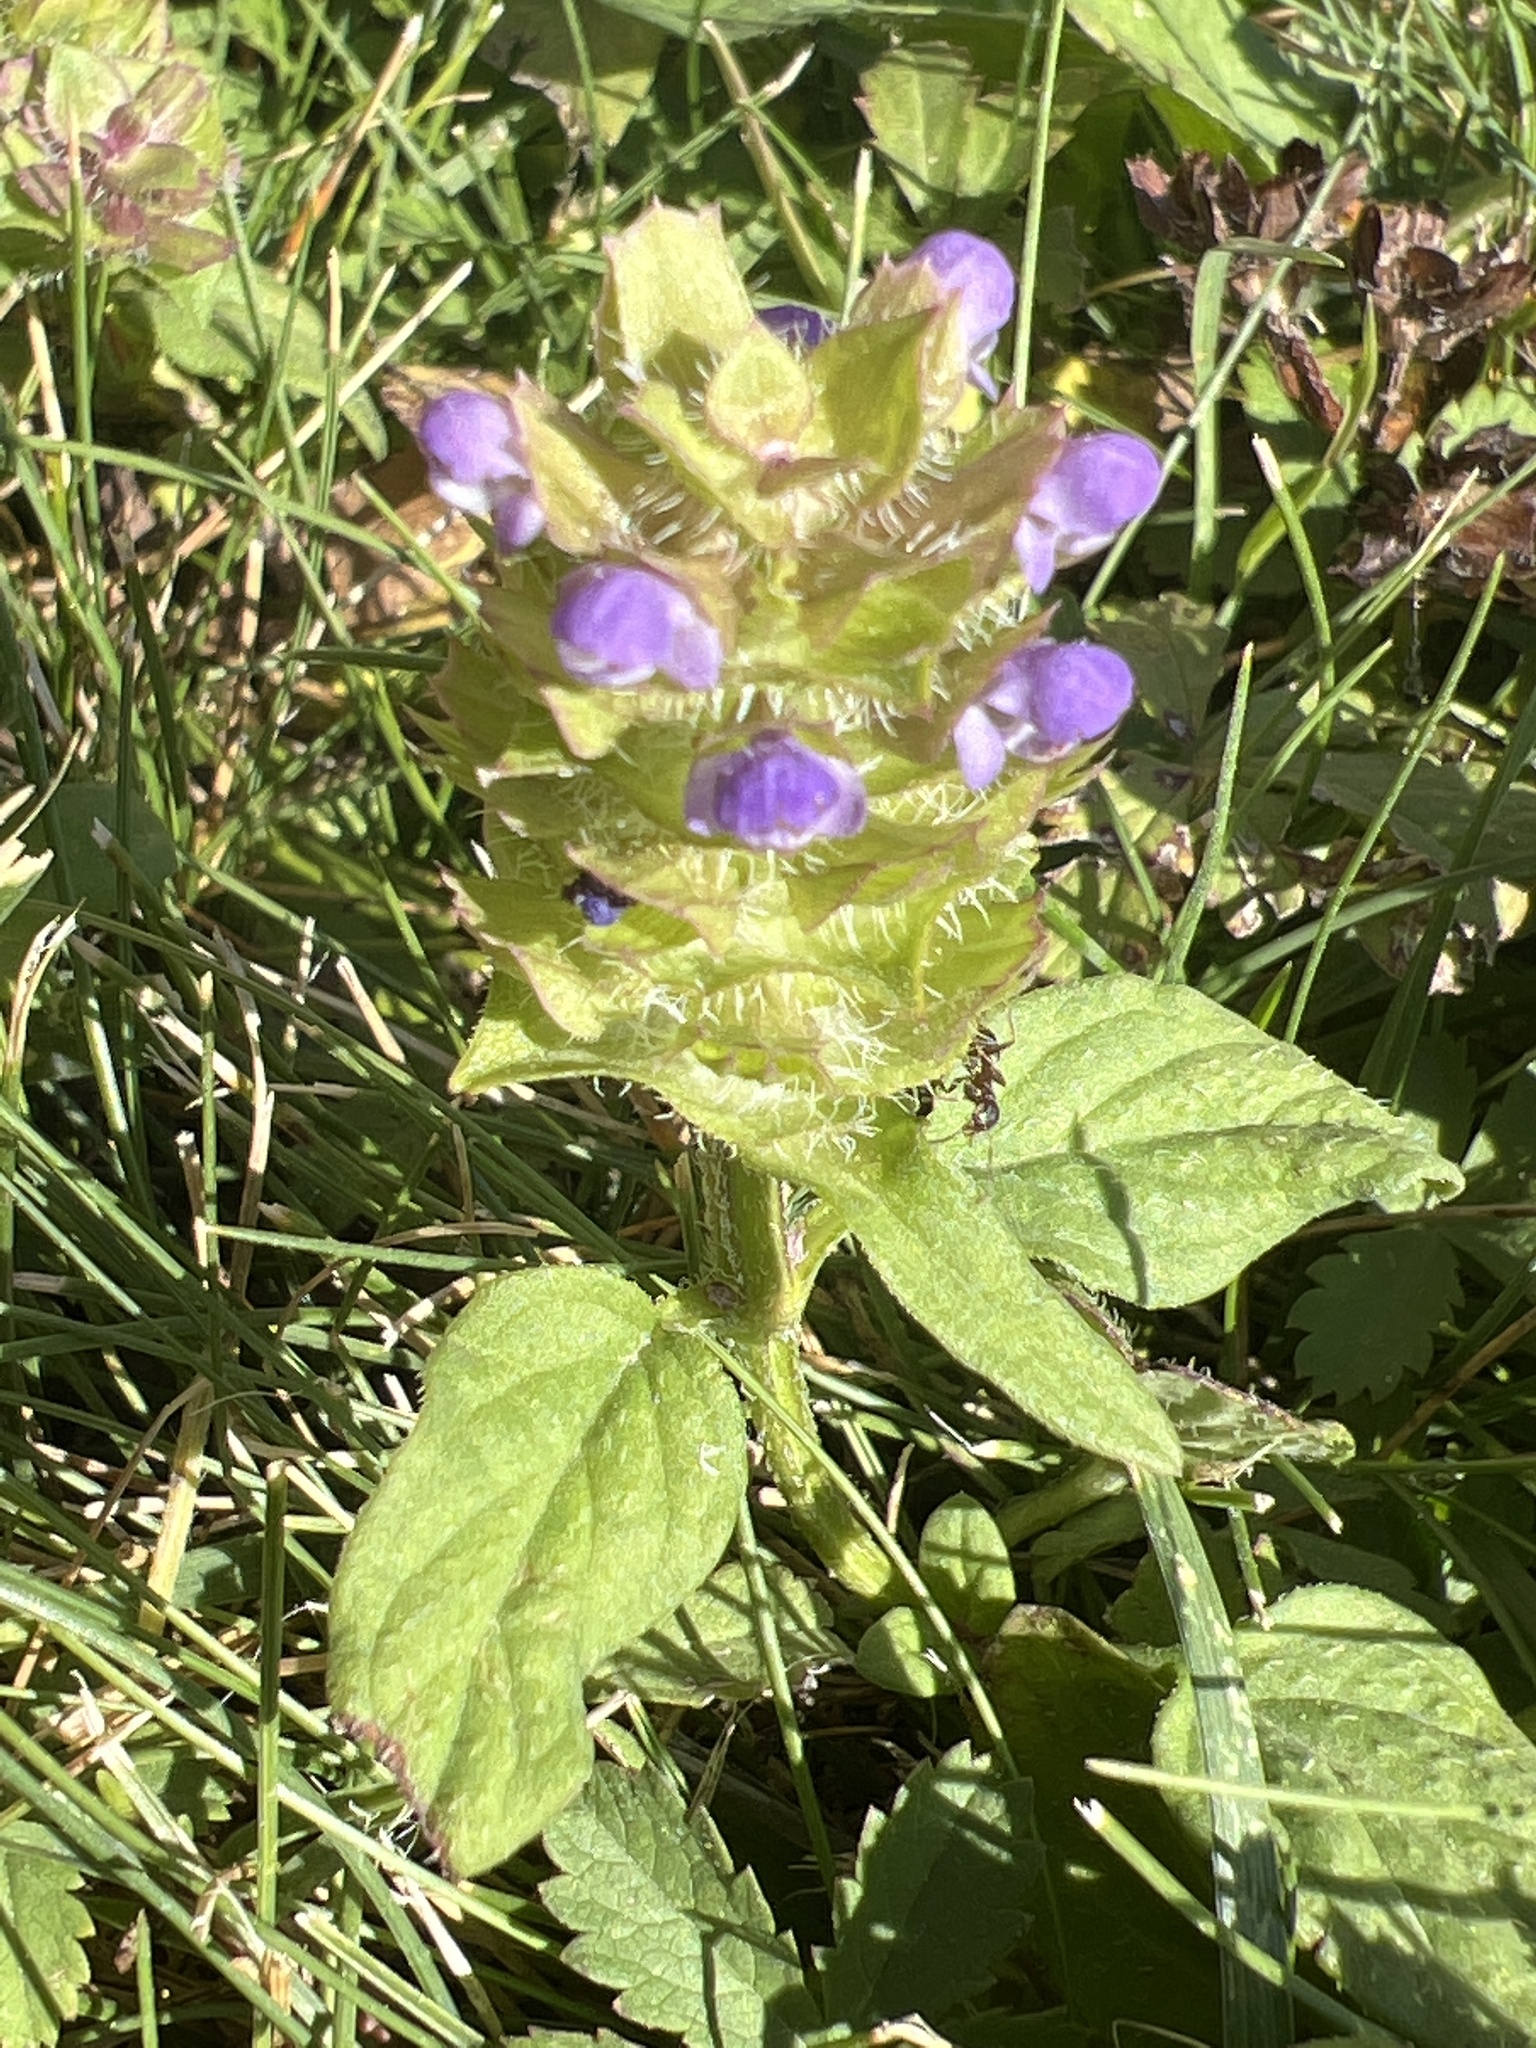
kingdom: Plantae
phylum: Tracheophyta
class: Magnoliopsida
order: Lamiales
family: Lamiaceae
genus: Prunella
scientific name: Prunella vulgaris
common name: Heal-all
